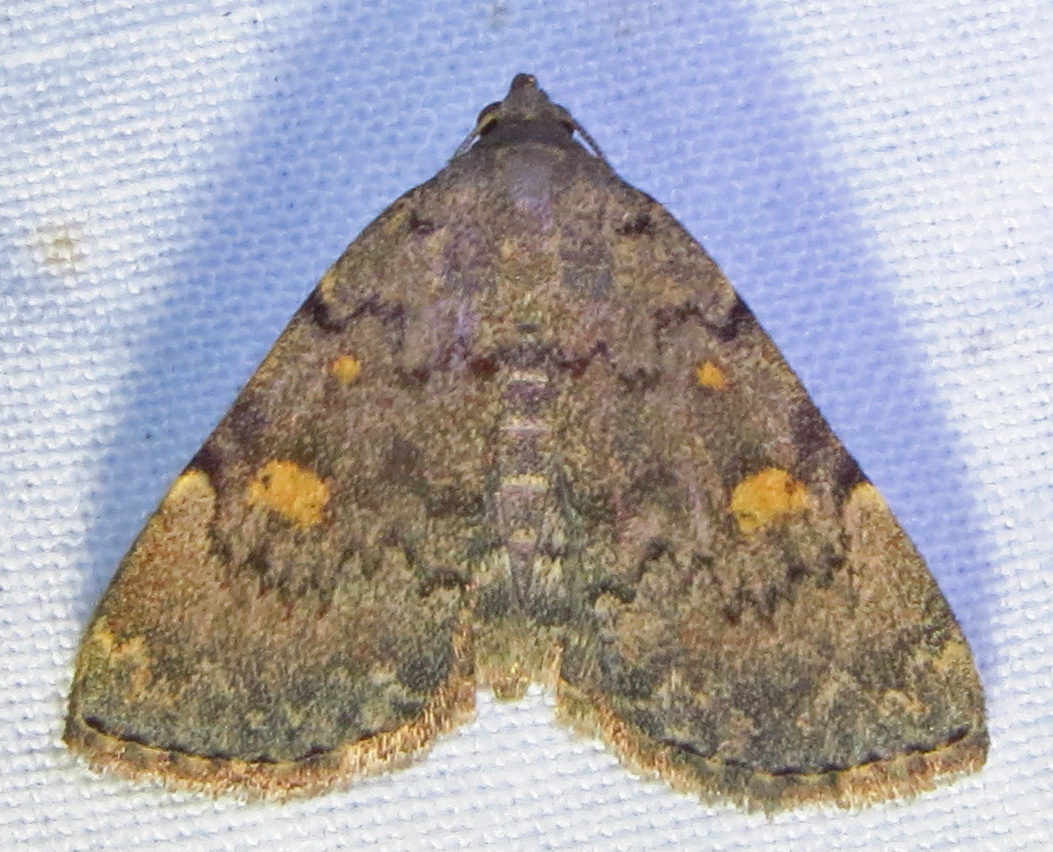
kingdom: Animalia
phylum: Arthropoda
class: Insecta
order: Lepidoptera
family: Erebidae
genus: Idia
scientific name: Idia aemula
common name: Common idia moth
